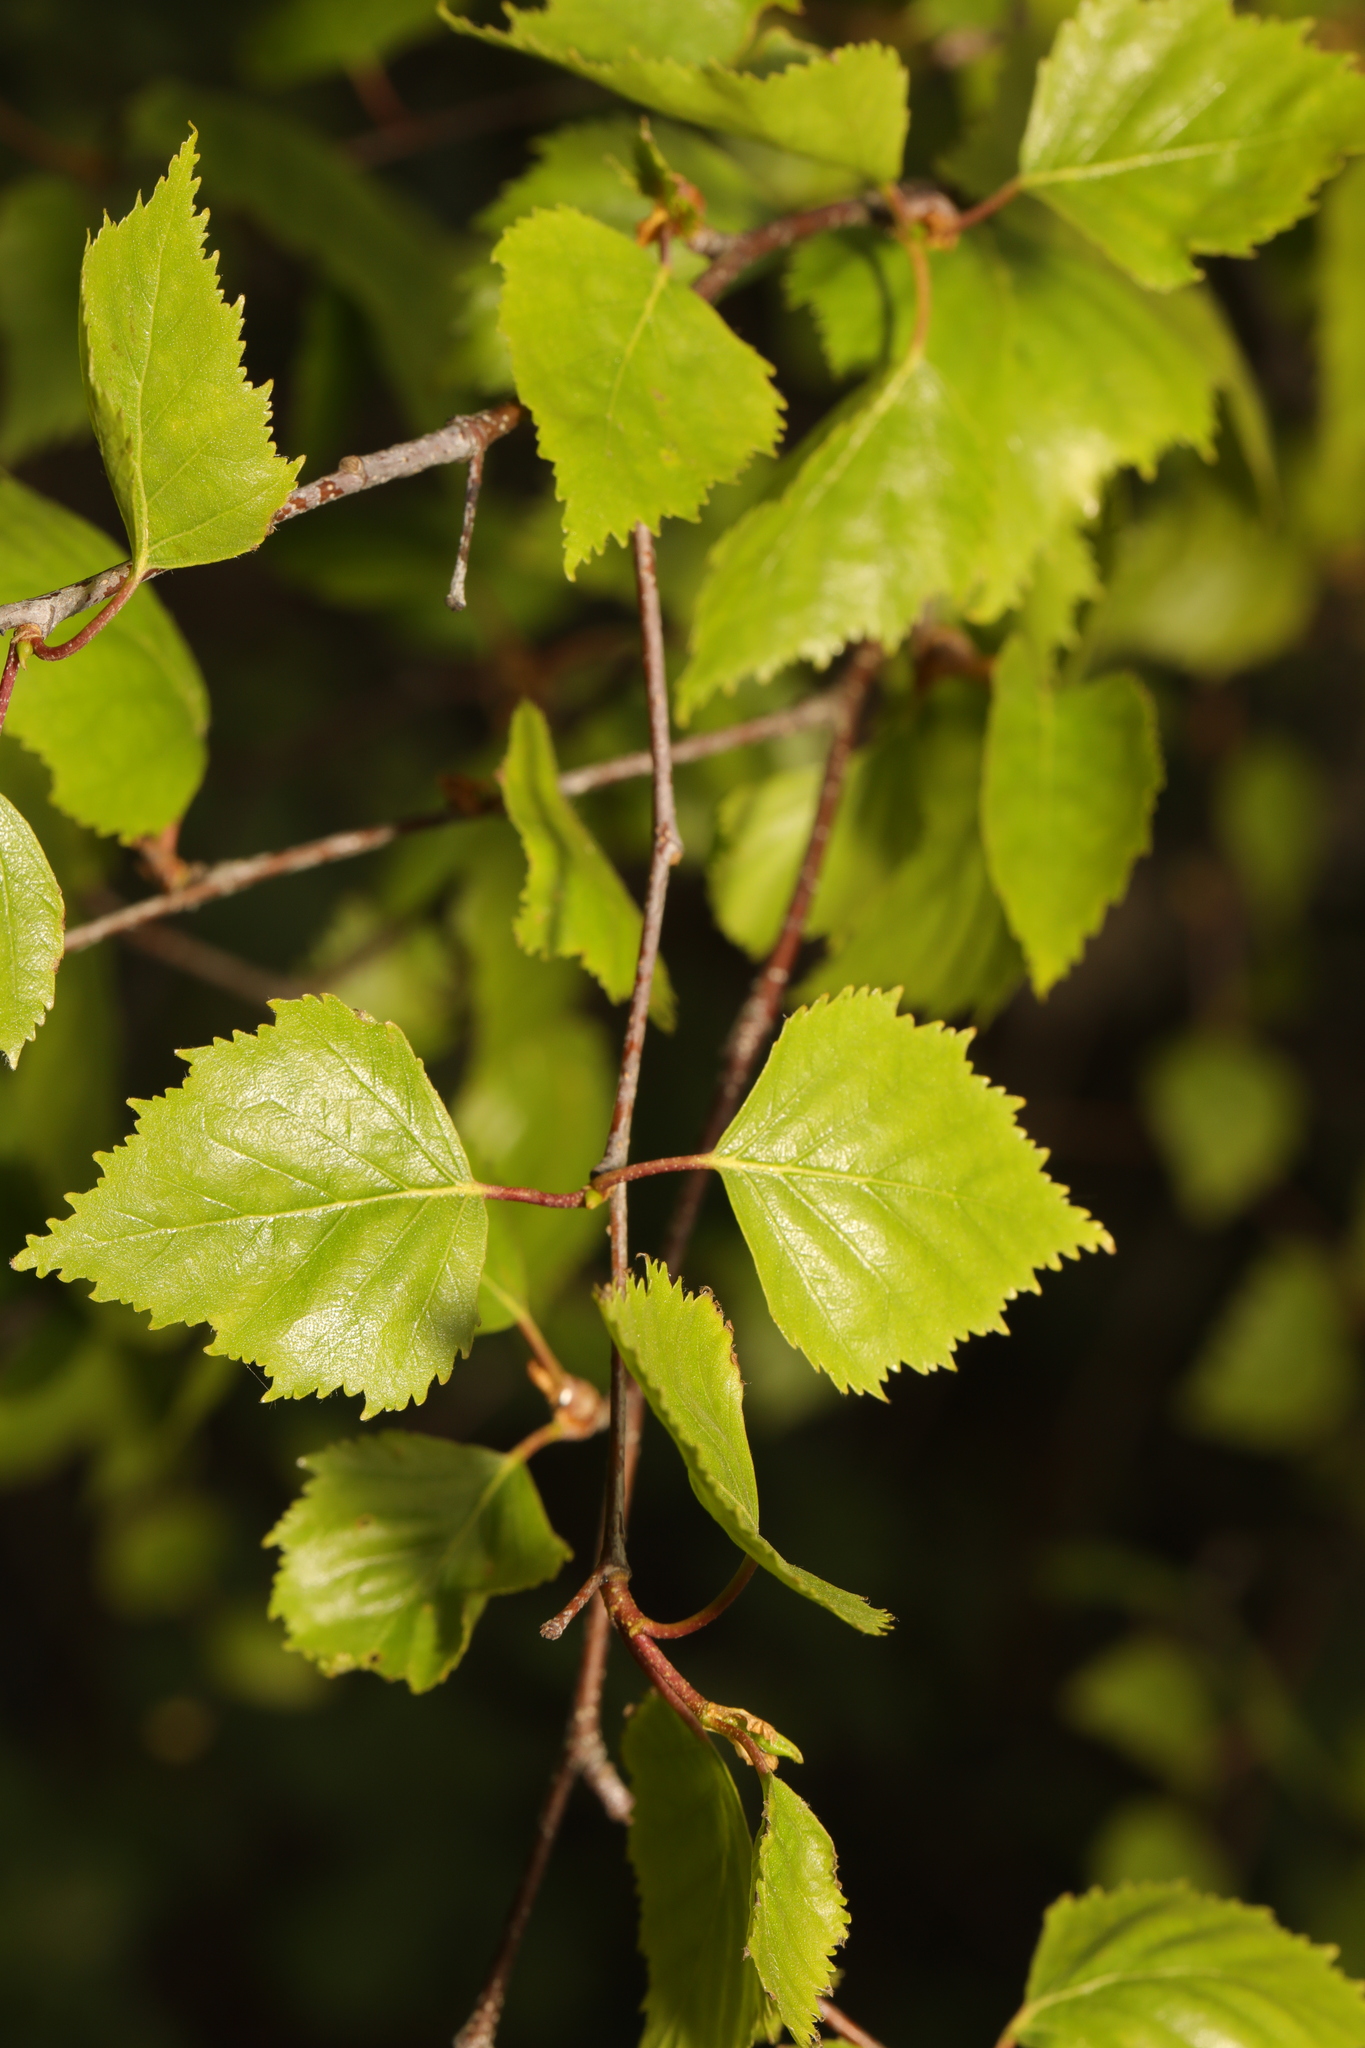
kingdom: Plantae
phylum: Tracheophyta
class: Magnoliopsida
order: Fagales
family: Betulaceae
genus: Betula
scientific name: Betula pendula
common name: Silver birch
